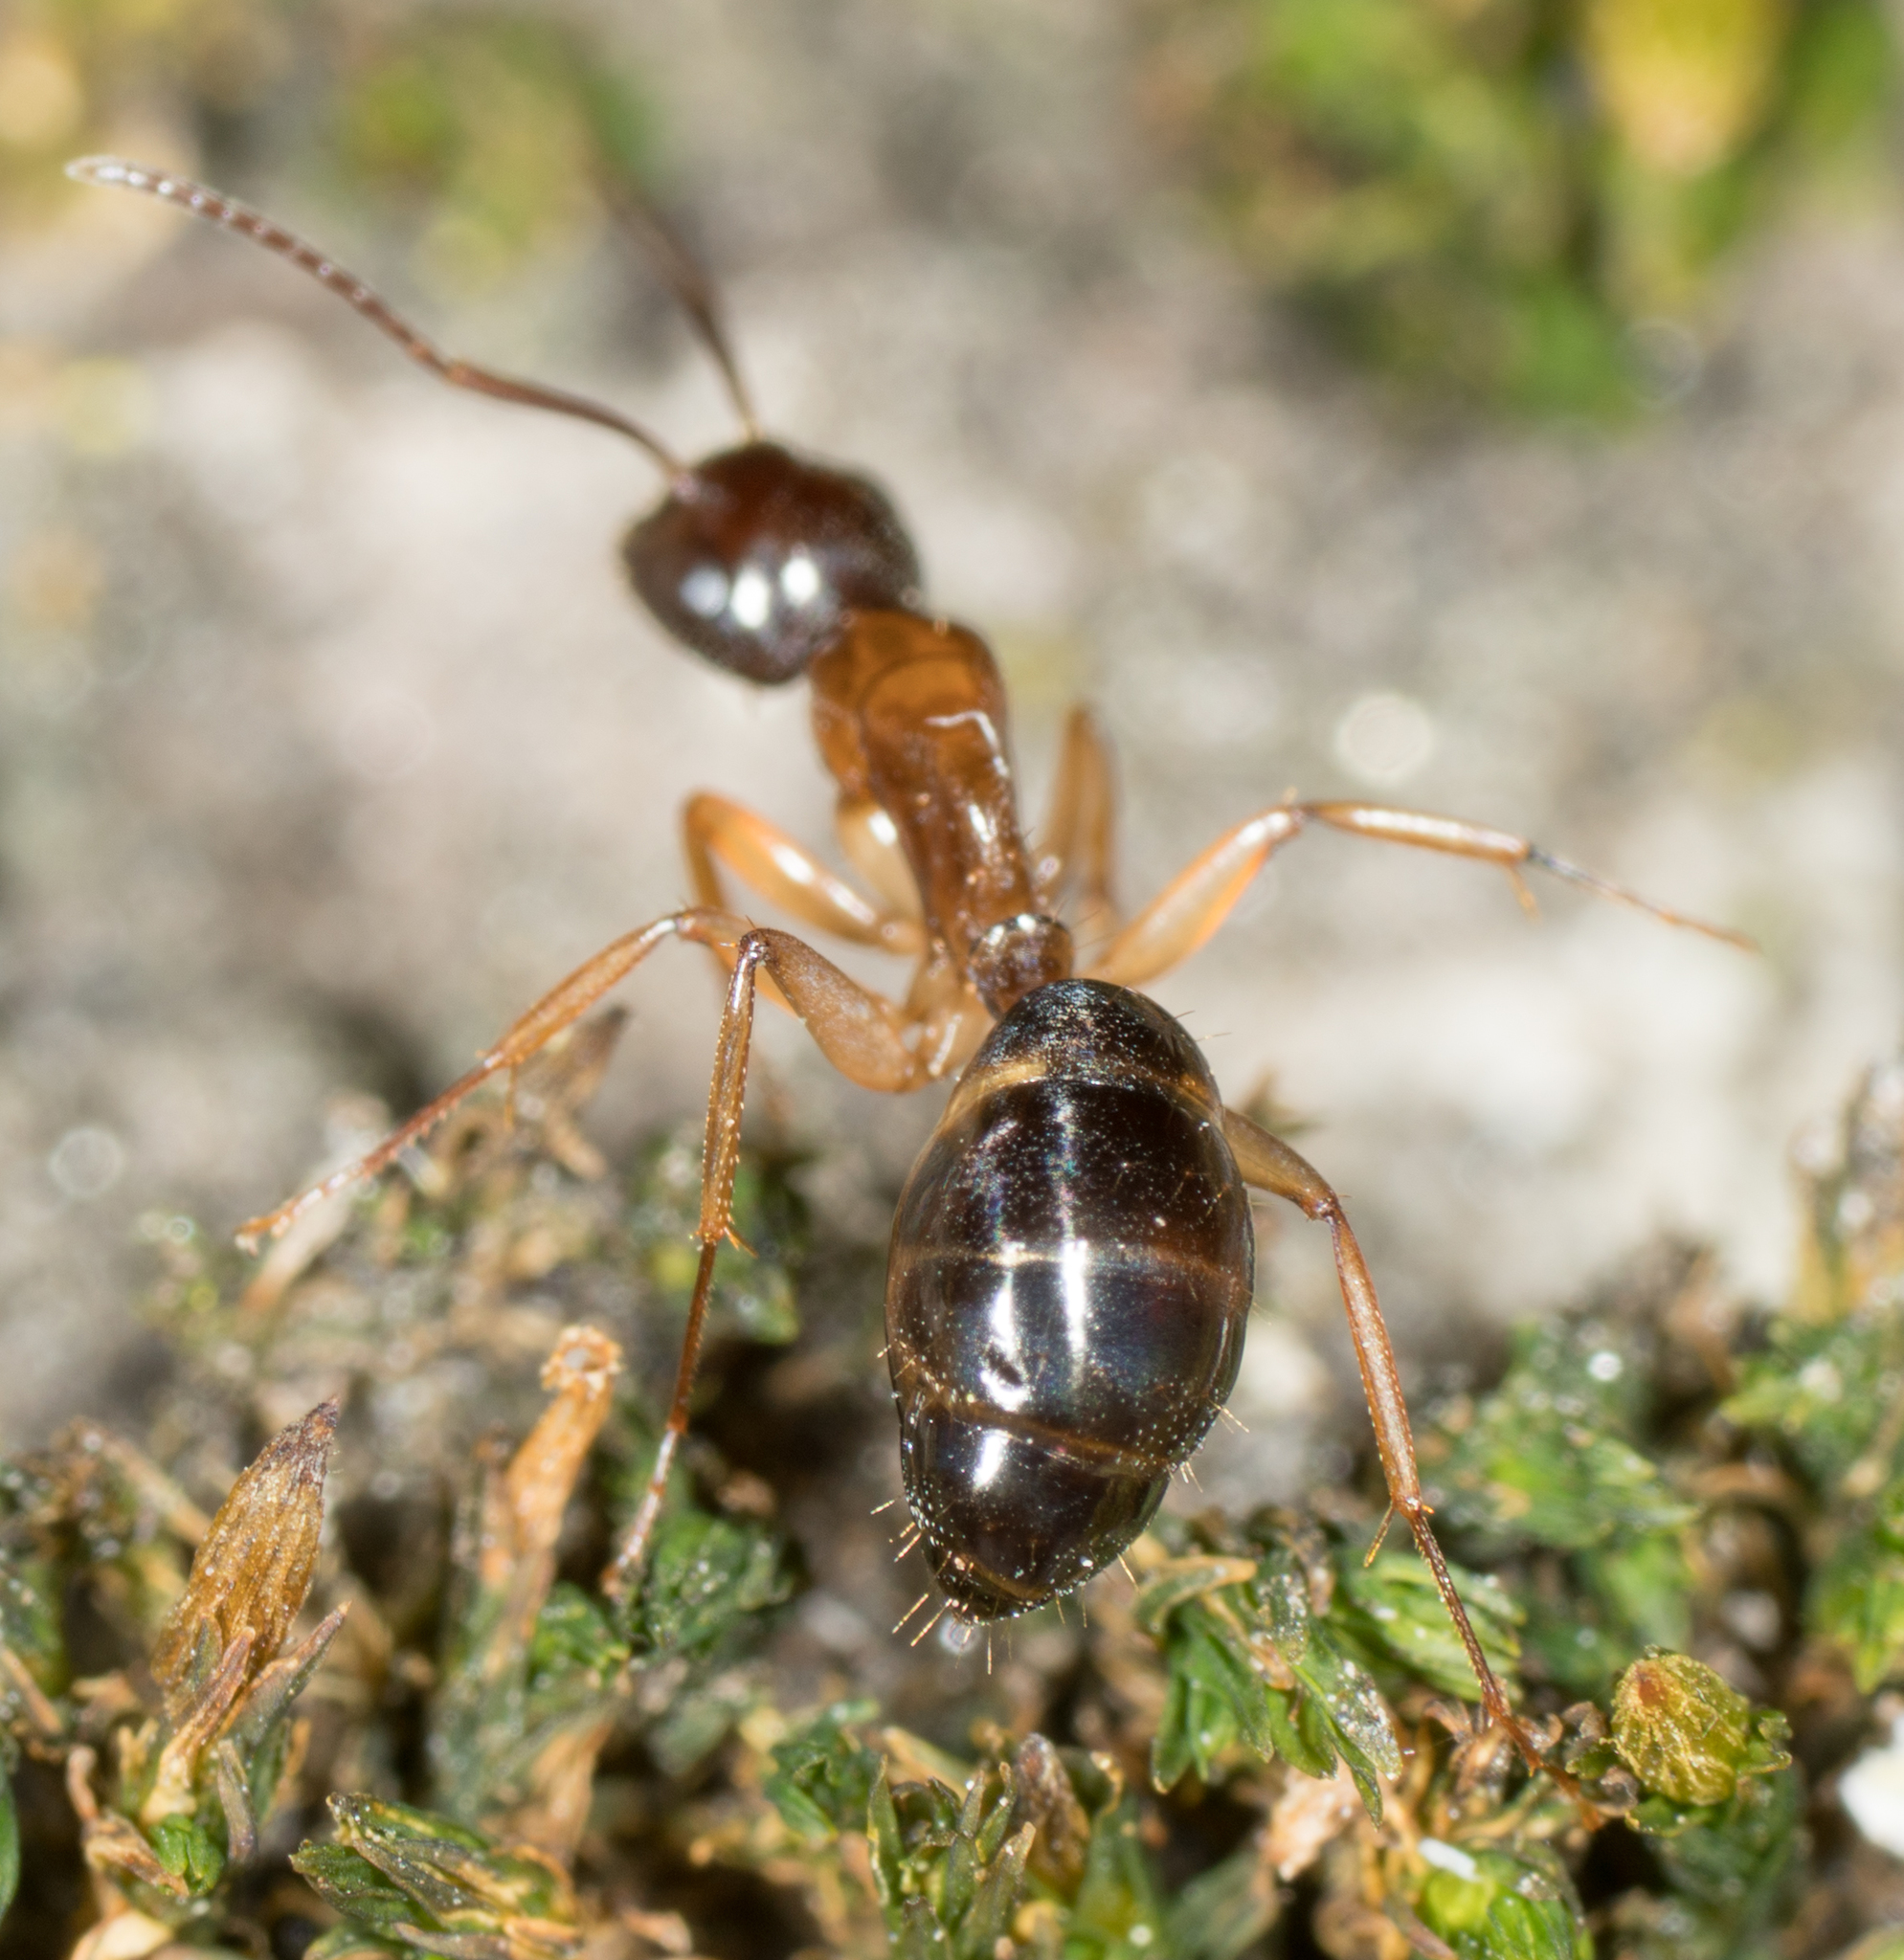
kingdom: Animalia
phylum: Arthropoda
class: Insecta
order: Hymenoptera
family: Formicidae
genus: Camponotus
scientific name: Camponotus clarithorax
